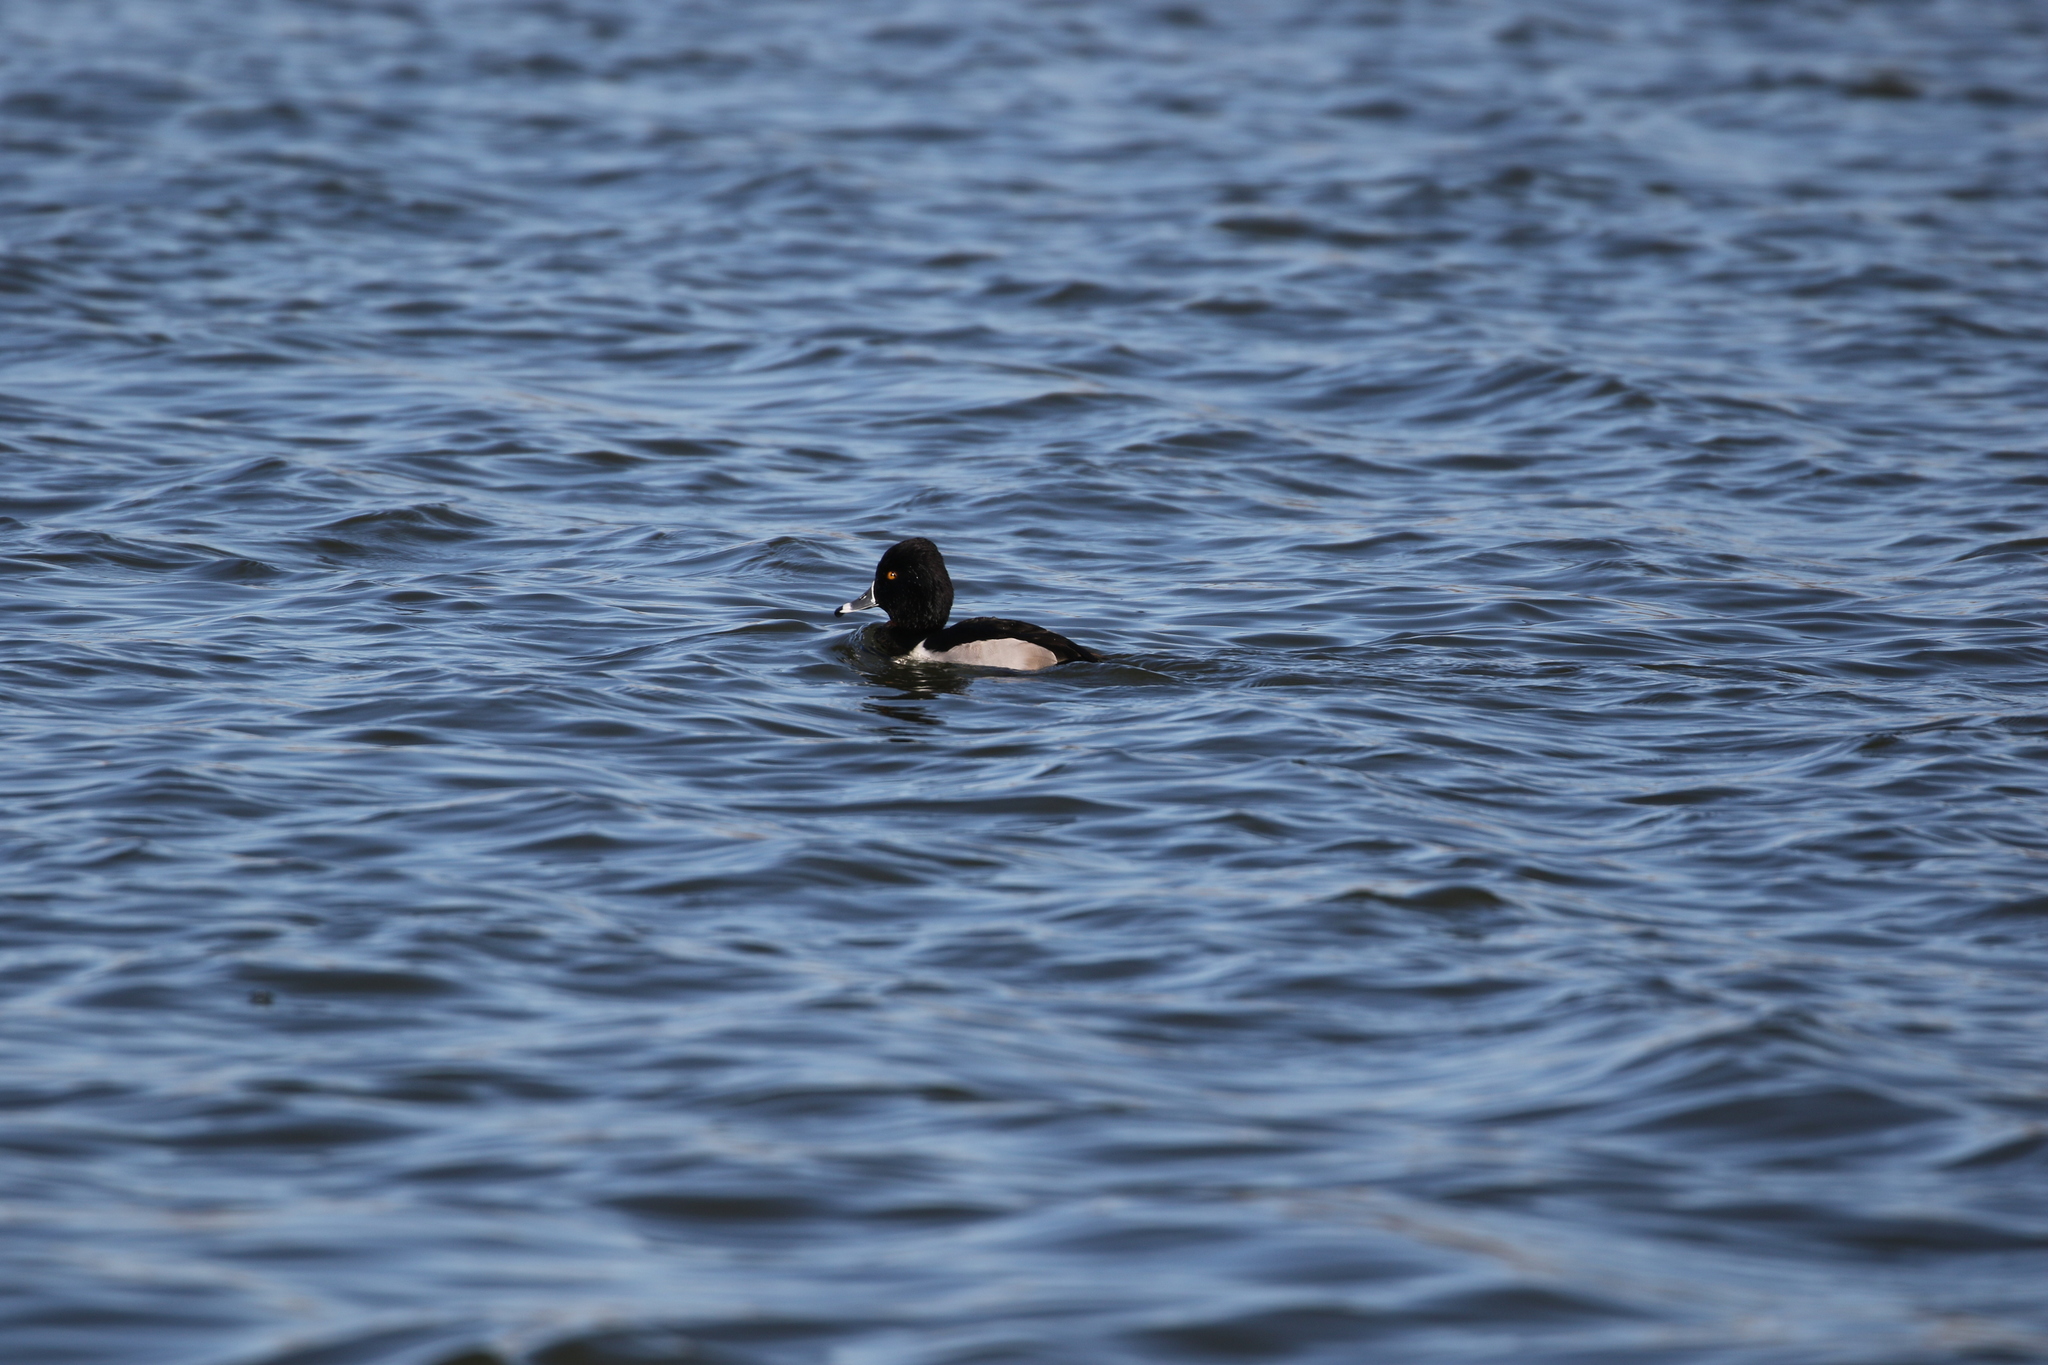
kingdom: Animalia
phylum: Chordata
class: Aves
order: Anseriformes
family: Anatidae
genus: Aythya
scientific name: Aythya collaris
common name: Ring-necked duck
